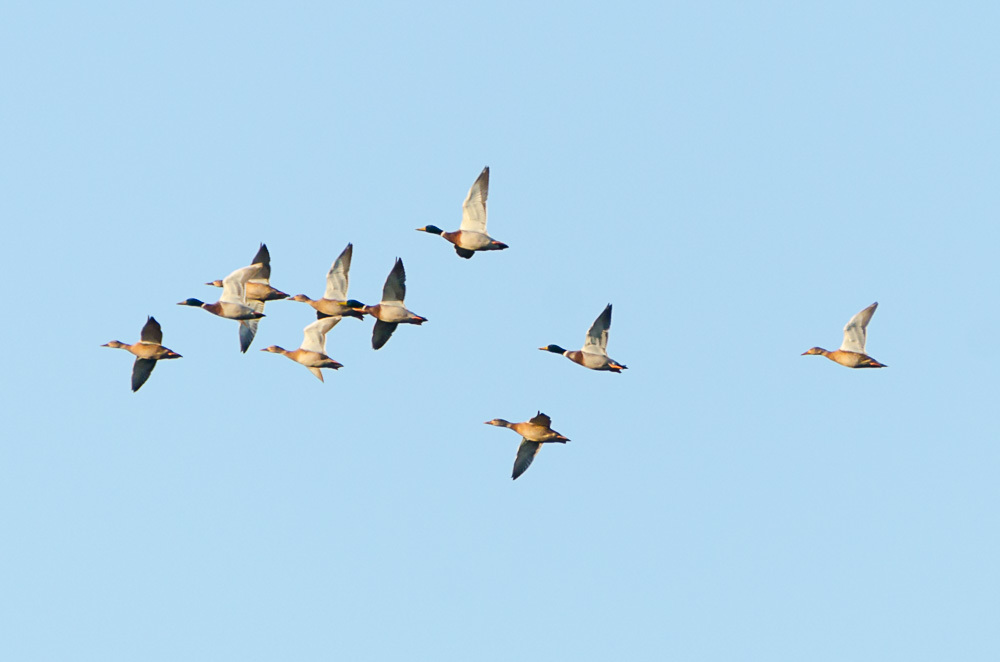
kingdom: Animalia
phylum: Chordata
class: Aves
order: Anseriformes
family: Anatidae
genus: Anas
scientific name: Anas platyrhynchos
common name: Mallard
